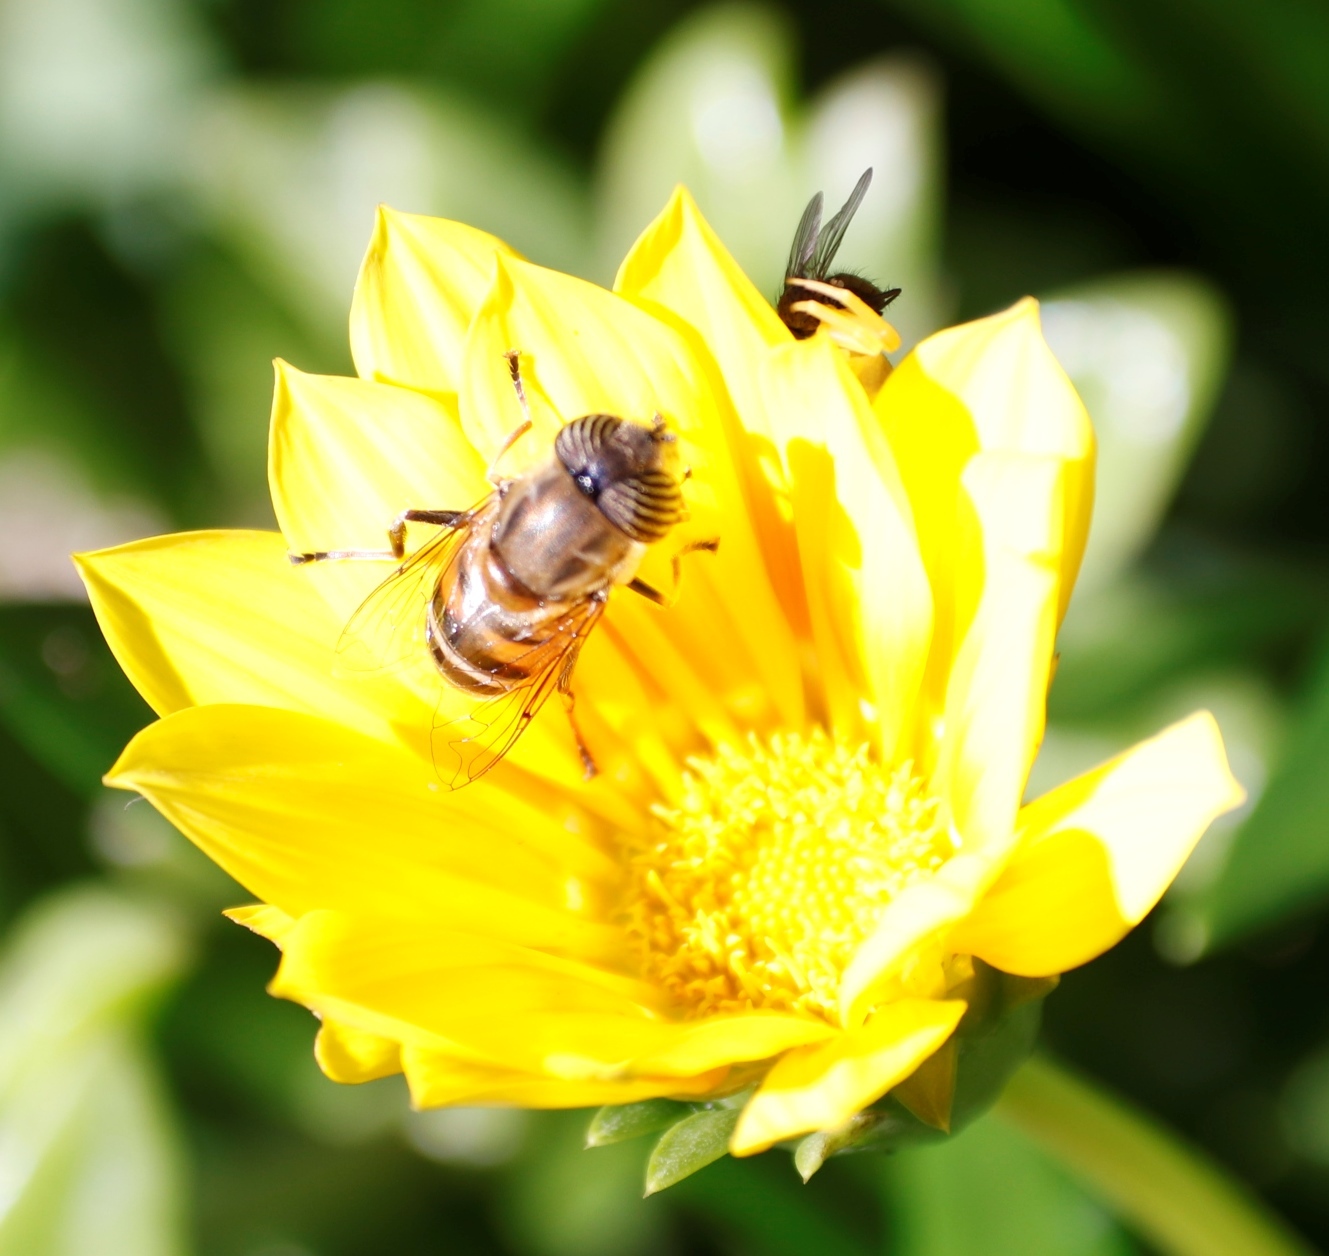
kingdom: Animalia
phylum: Arthropoda
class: Insecta
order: Diptera
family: Syrphidae
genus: Eristalinus
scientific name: Eristalinus taeniops
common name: Syrphid fly
